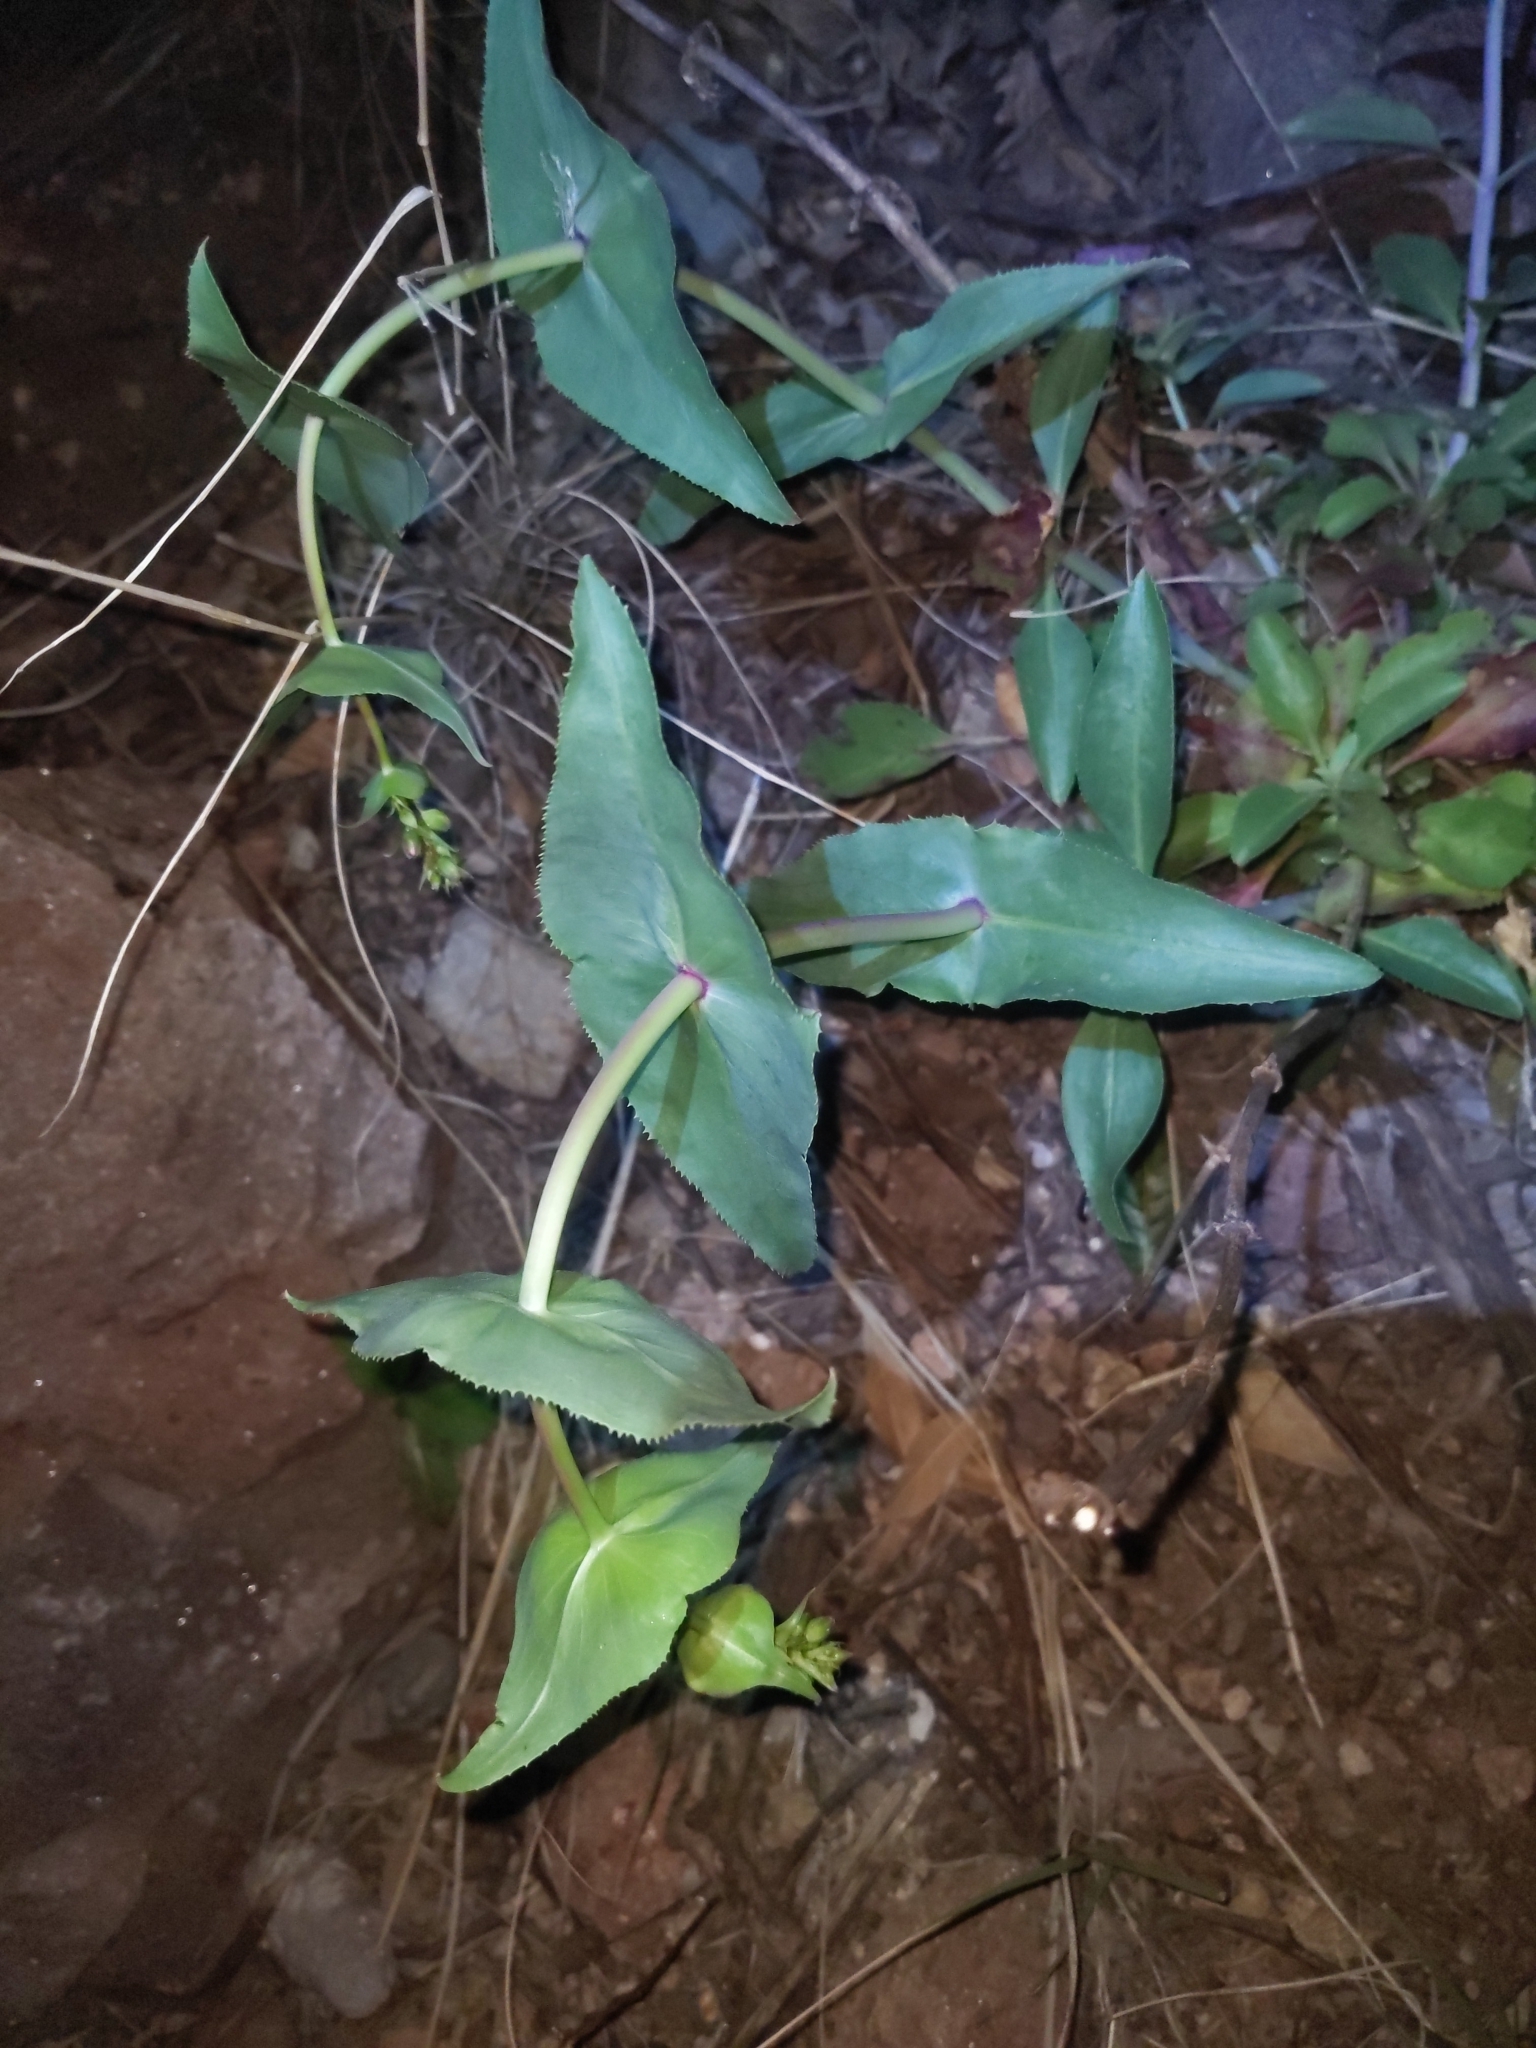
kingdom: Plantae
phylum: Tracheophyta
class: Magnoliopsida
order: Lamiales
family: Plantaginaceae
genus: Penstemon
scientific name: Penstemon pseudospectabilis
